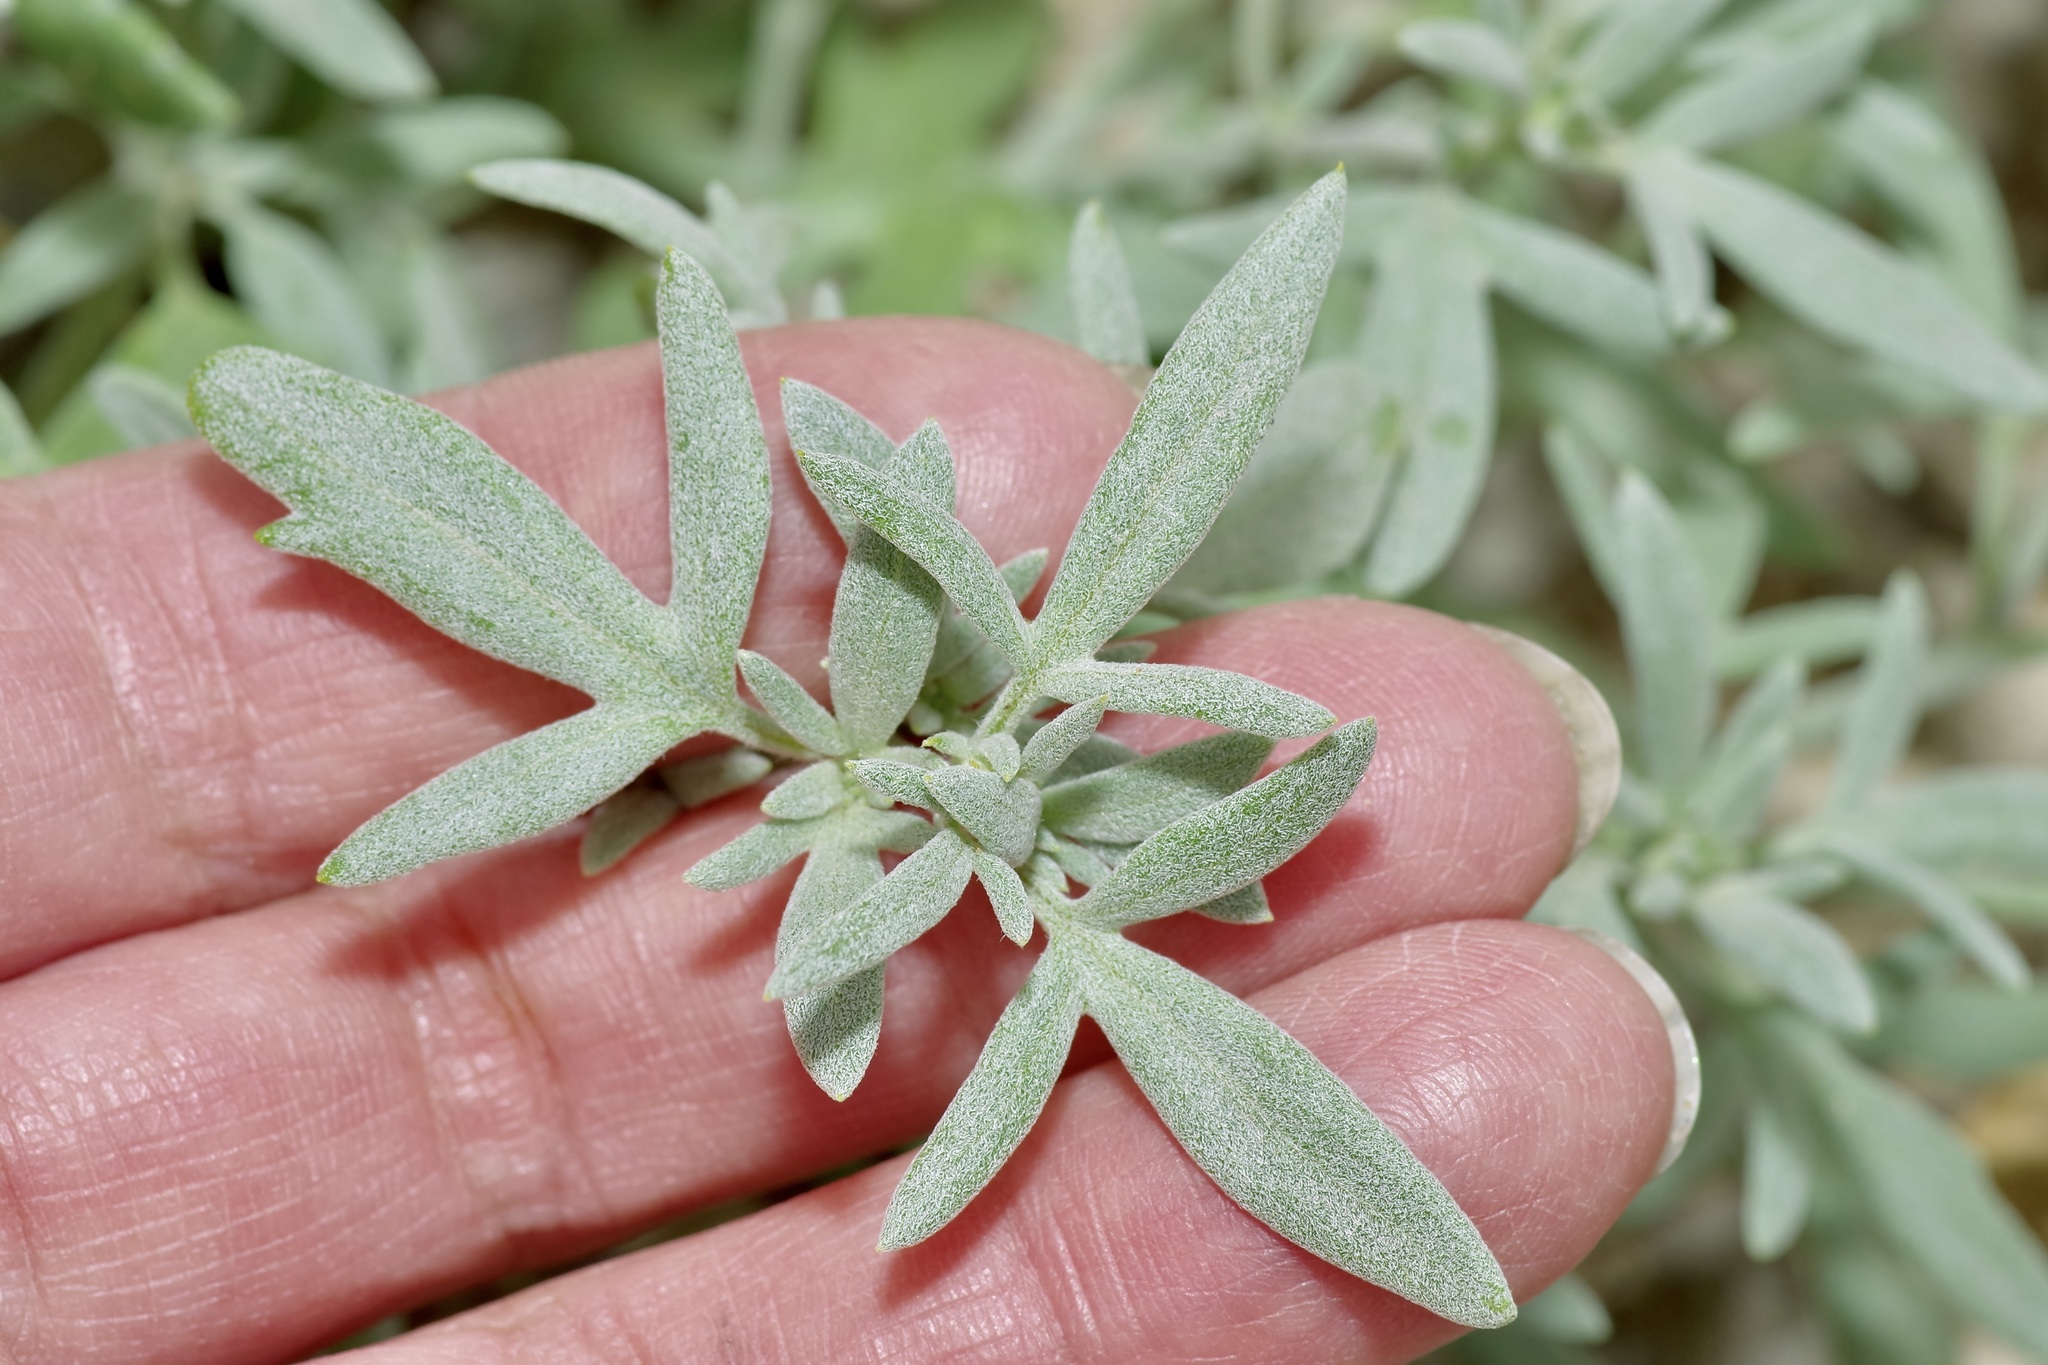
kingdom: Plantae
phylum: Tracheophyta
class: Magnoliopsida
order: Asterales
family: Asteraceae
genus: Picradeniopsis
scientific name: Picradeniopsis absinthifolia
